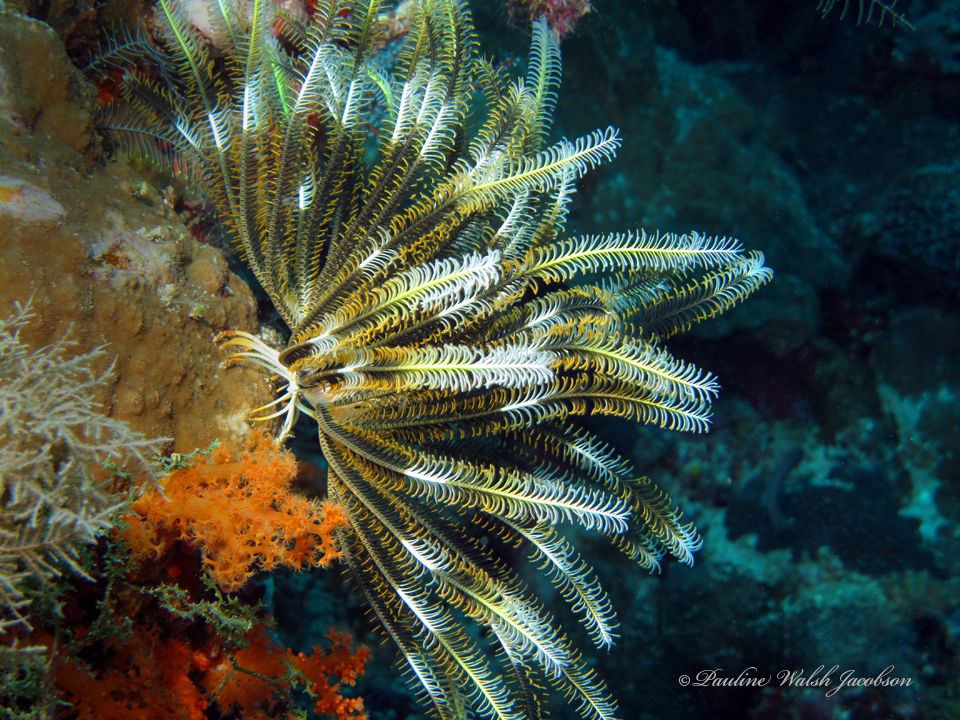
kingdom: Animalia
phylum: Echinodermata
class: Crinoidea
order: Comatulida
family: Comatulidae
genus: Anneissia
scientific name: Anneissia bennetti
